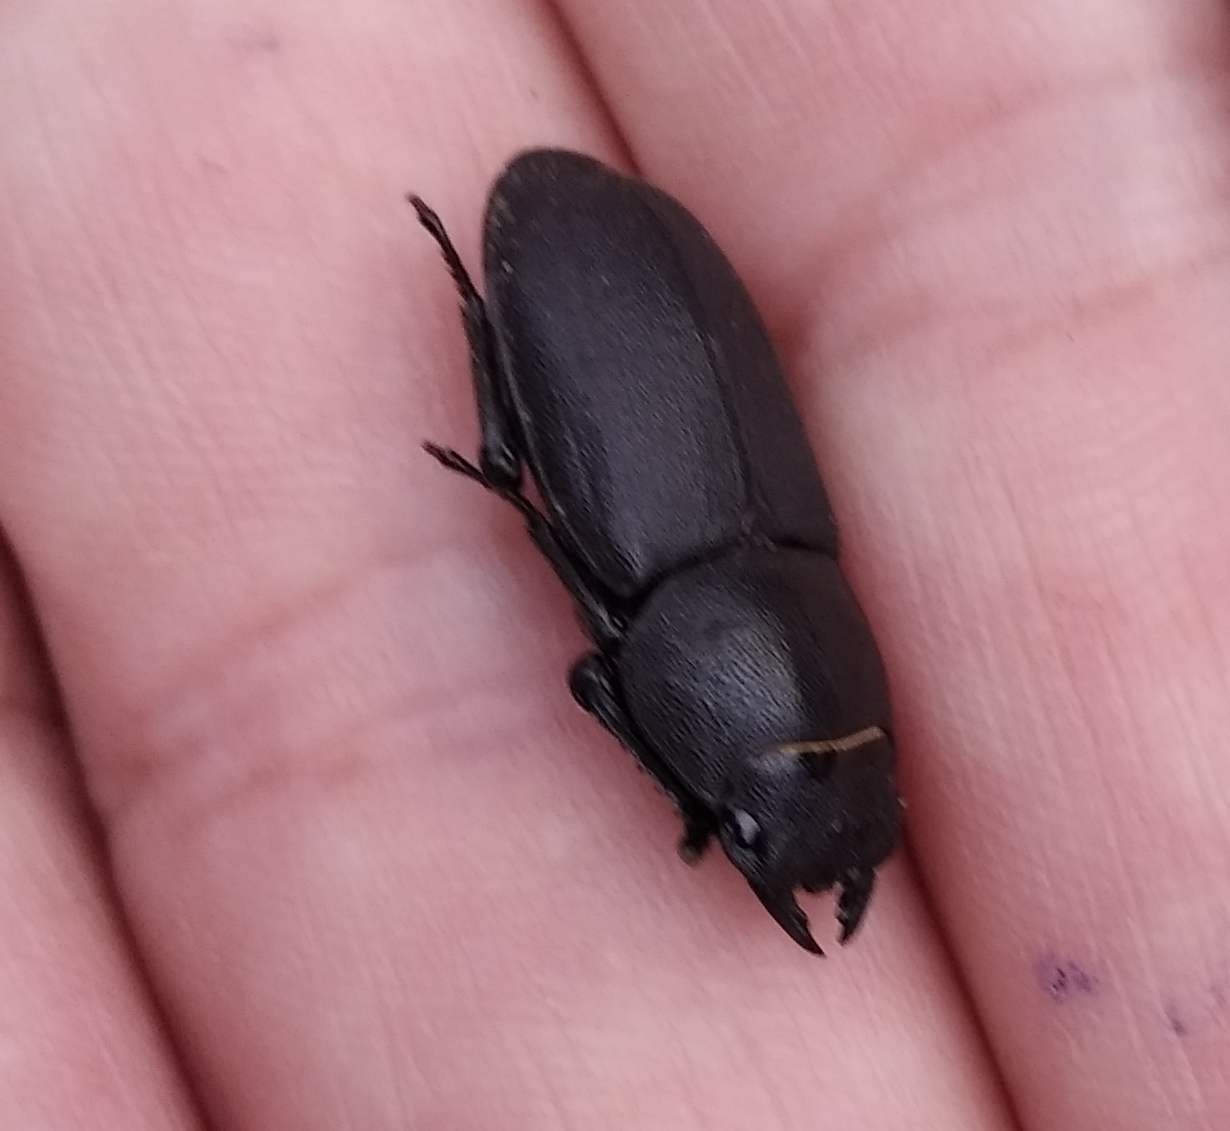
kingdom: Animalia
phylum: Arthropoda
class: Insecta
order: Coleoptera
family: Lucanidae
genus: Dorcus
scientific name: Dorcus parallelipipedus
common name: Lesser stag beetle
